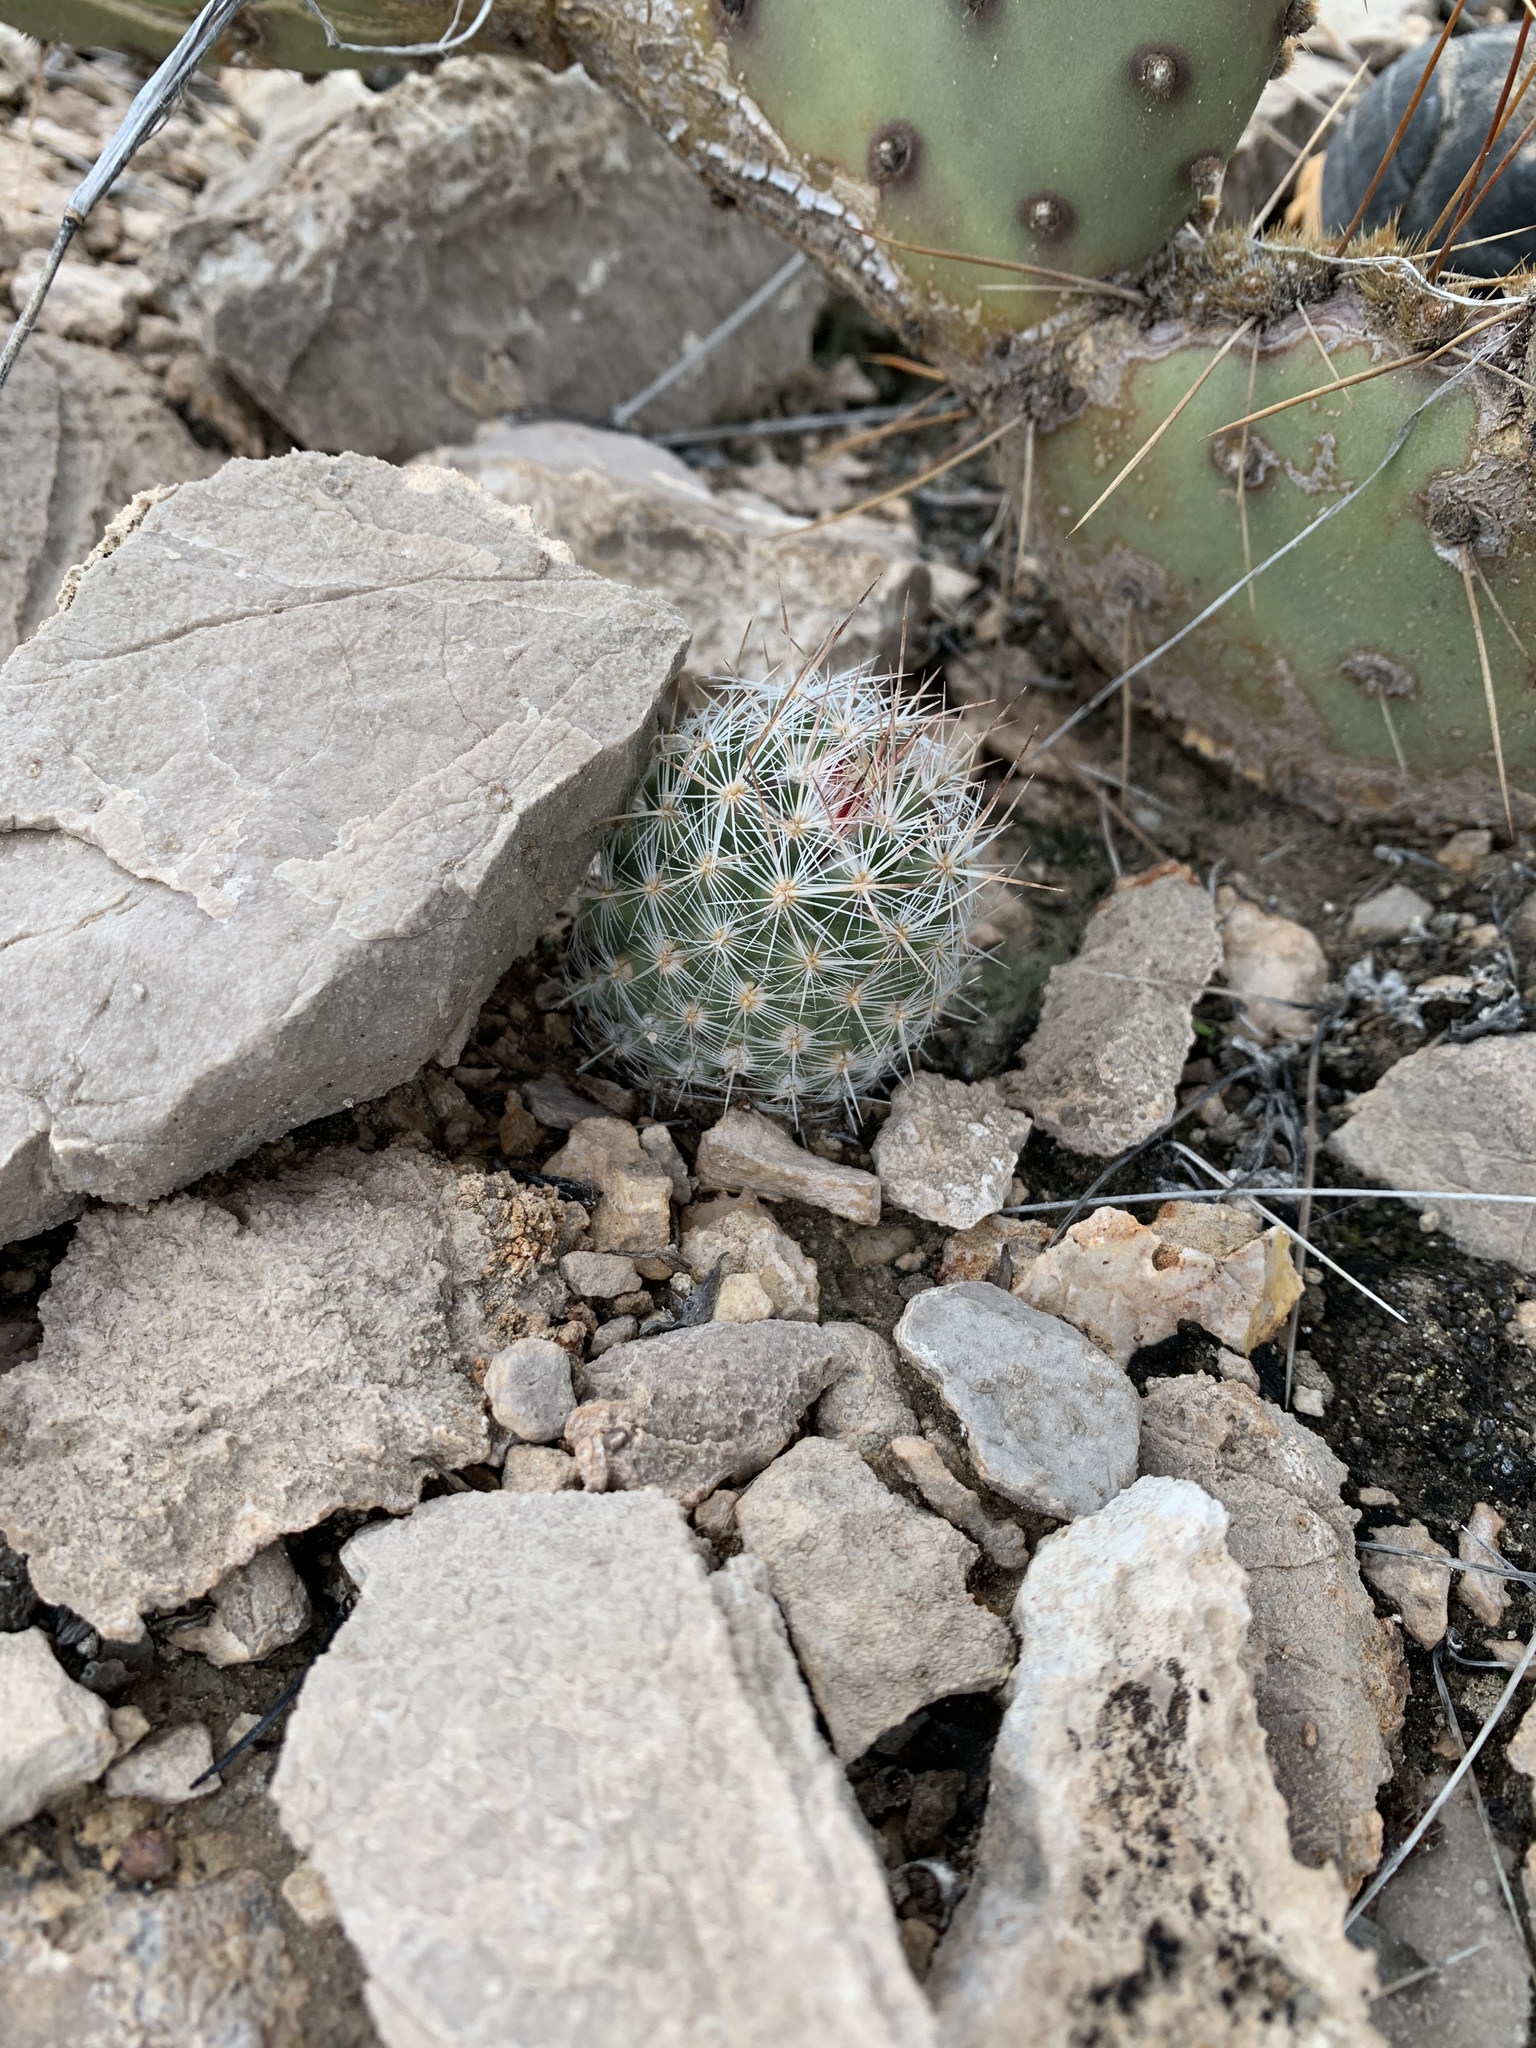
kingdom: Plantae
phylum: Tracheophyta
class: Magnoliopsida
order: Caryophyllales
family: Cactaceae
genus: Pelecyphora
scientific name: Pelecyphora tuberculosa
